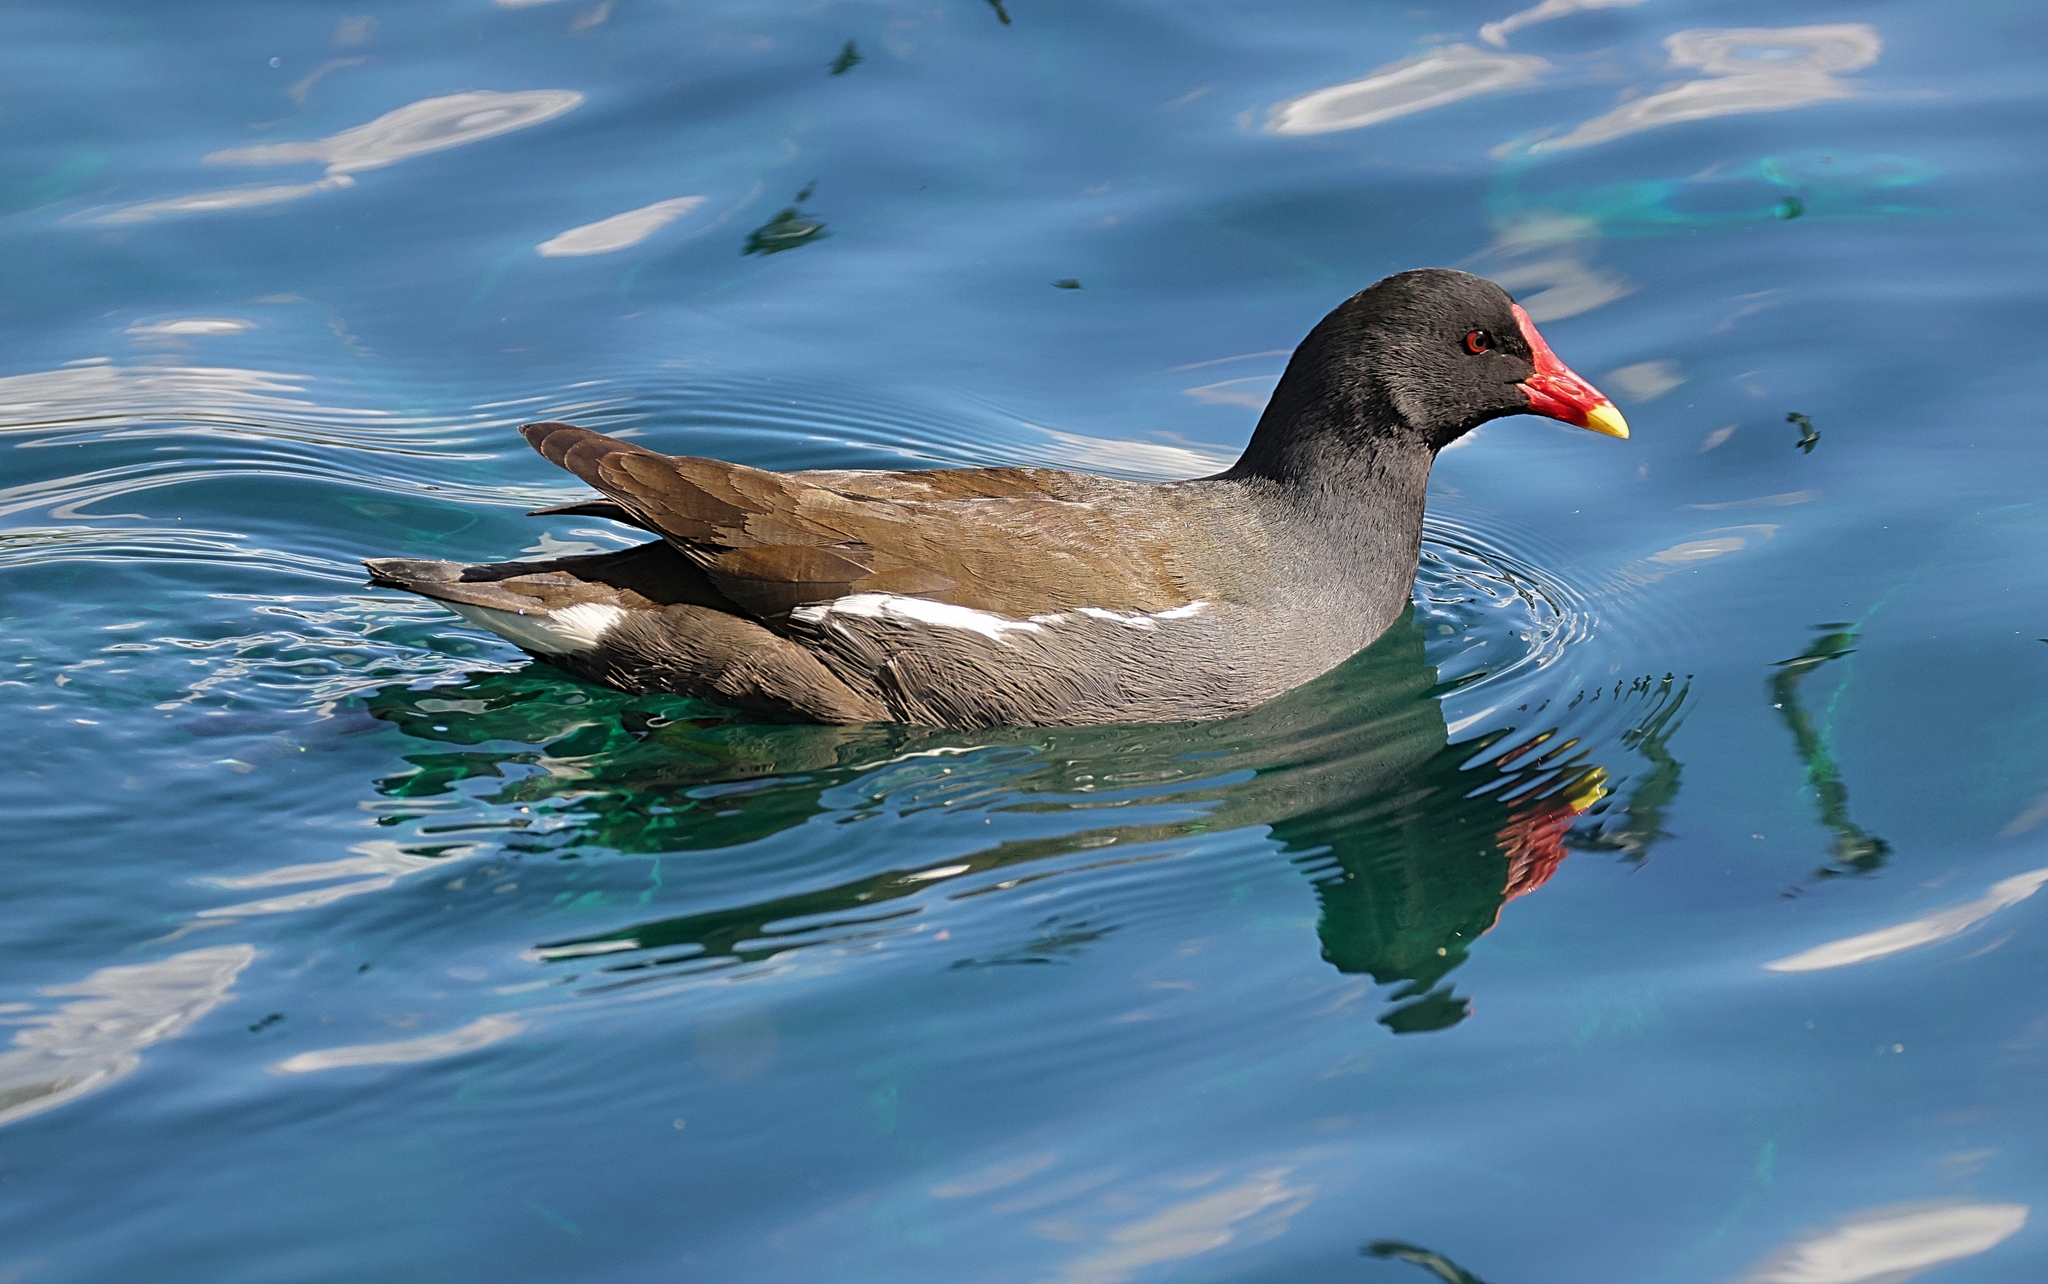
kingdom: Animalia
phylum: Chordata
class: Aves
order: Gruiformes
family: Rallidae
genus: Gallinula
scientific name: Gallinula chloropus
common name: Common moorhen
